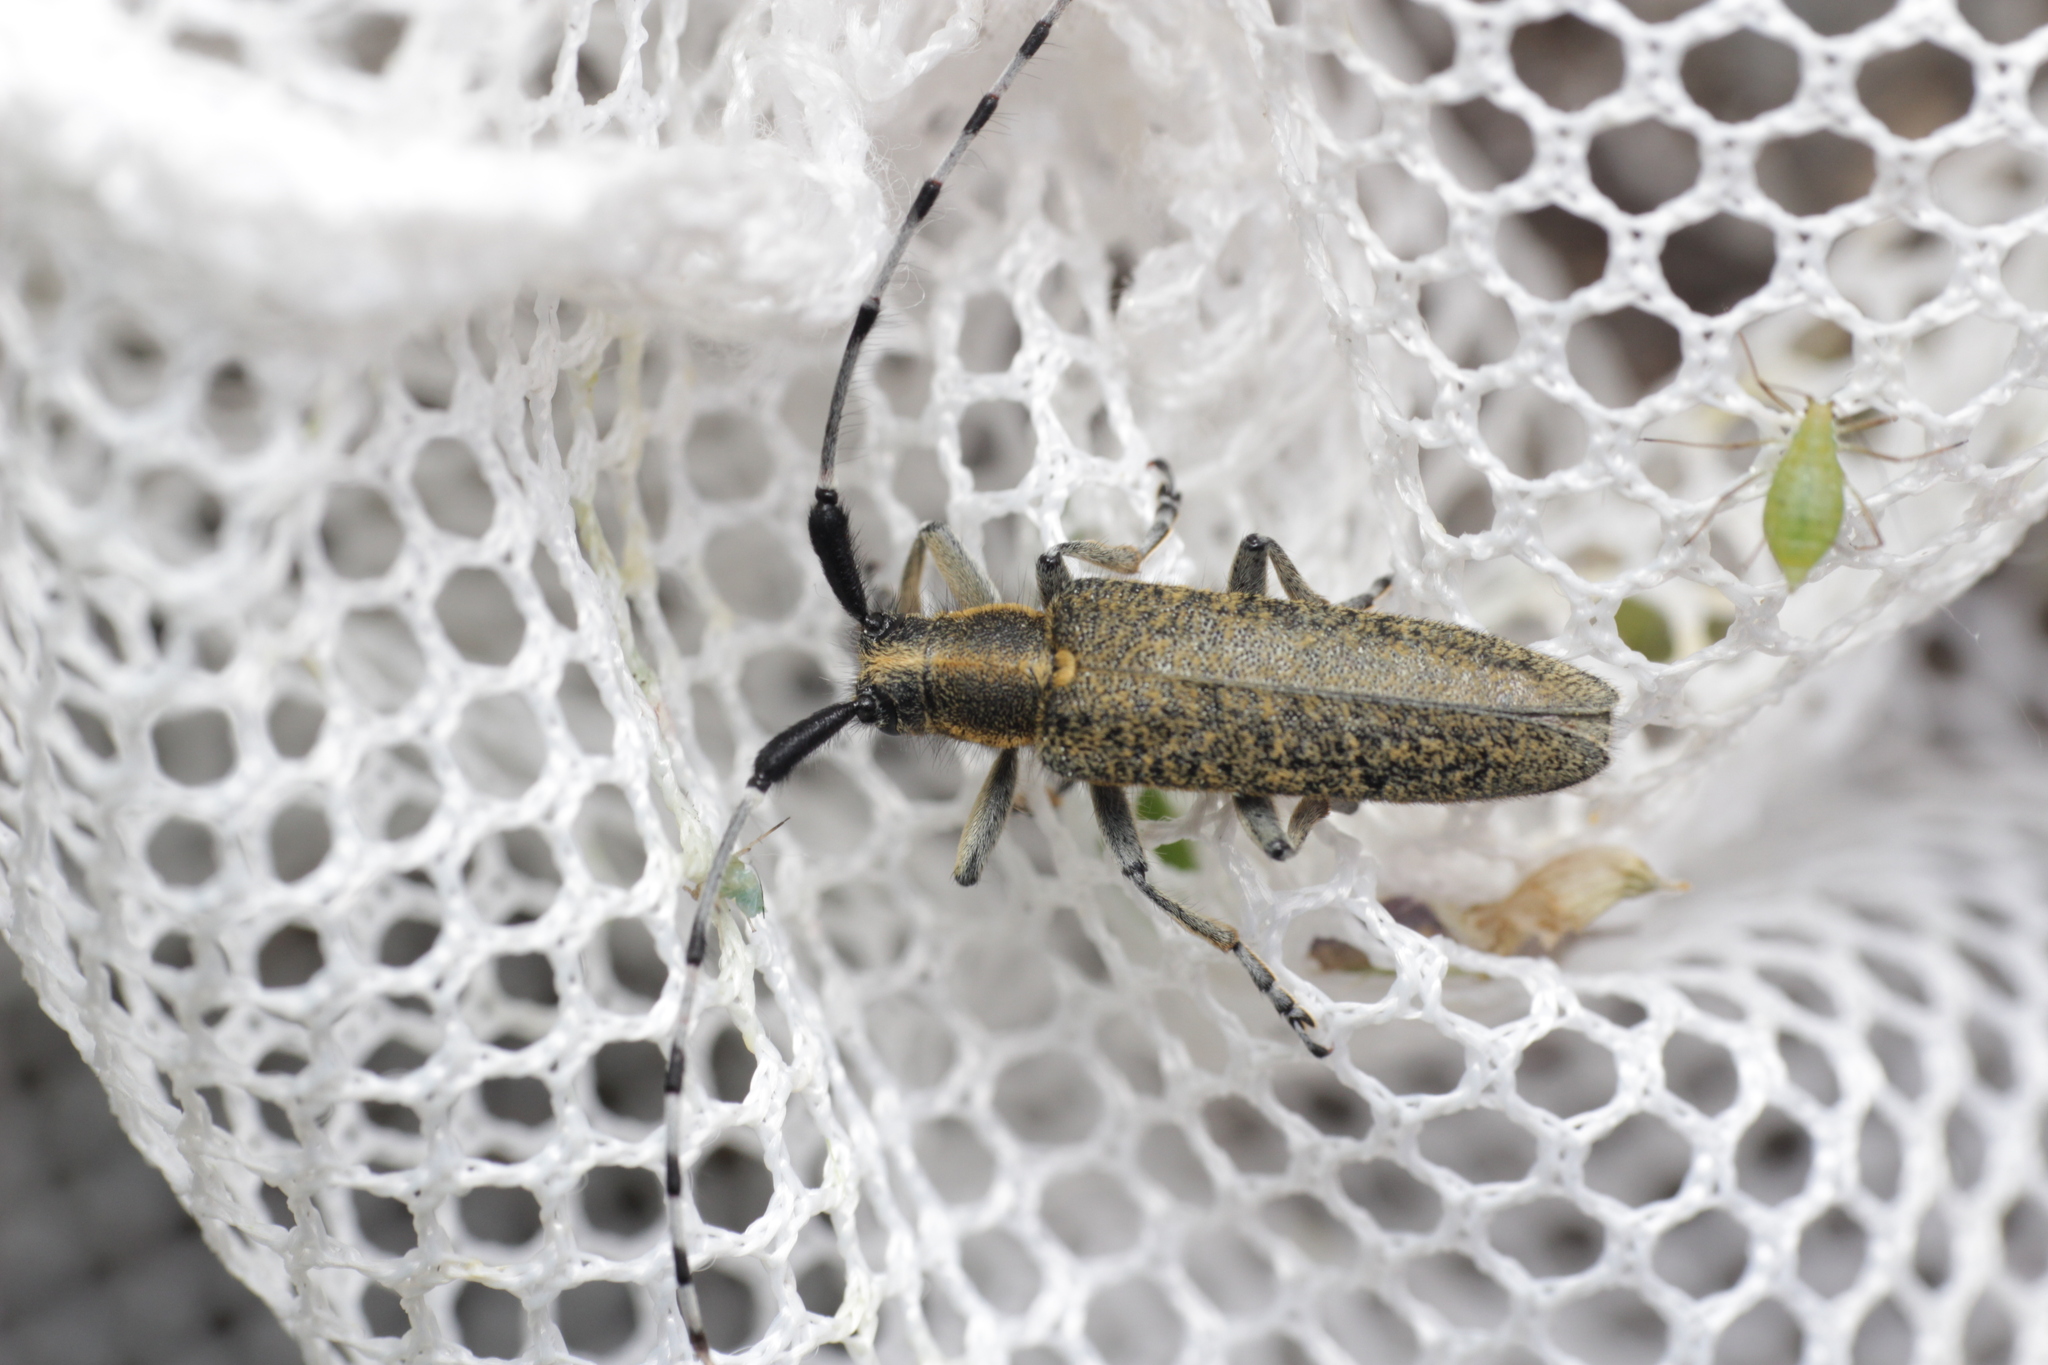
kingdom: Animalia
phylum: Arthropoda
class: Insecta
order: Coleoptera
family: Cerambycidae
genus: Agapanthia
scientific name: Agapanthia villosoviridescens
